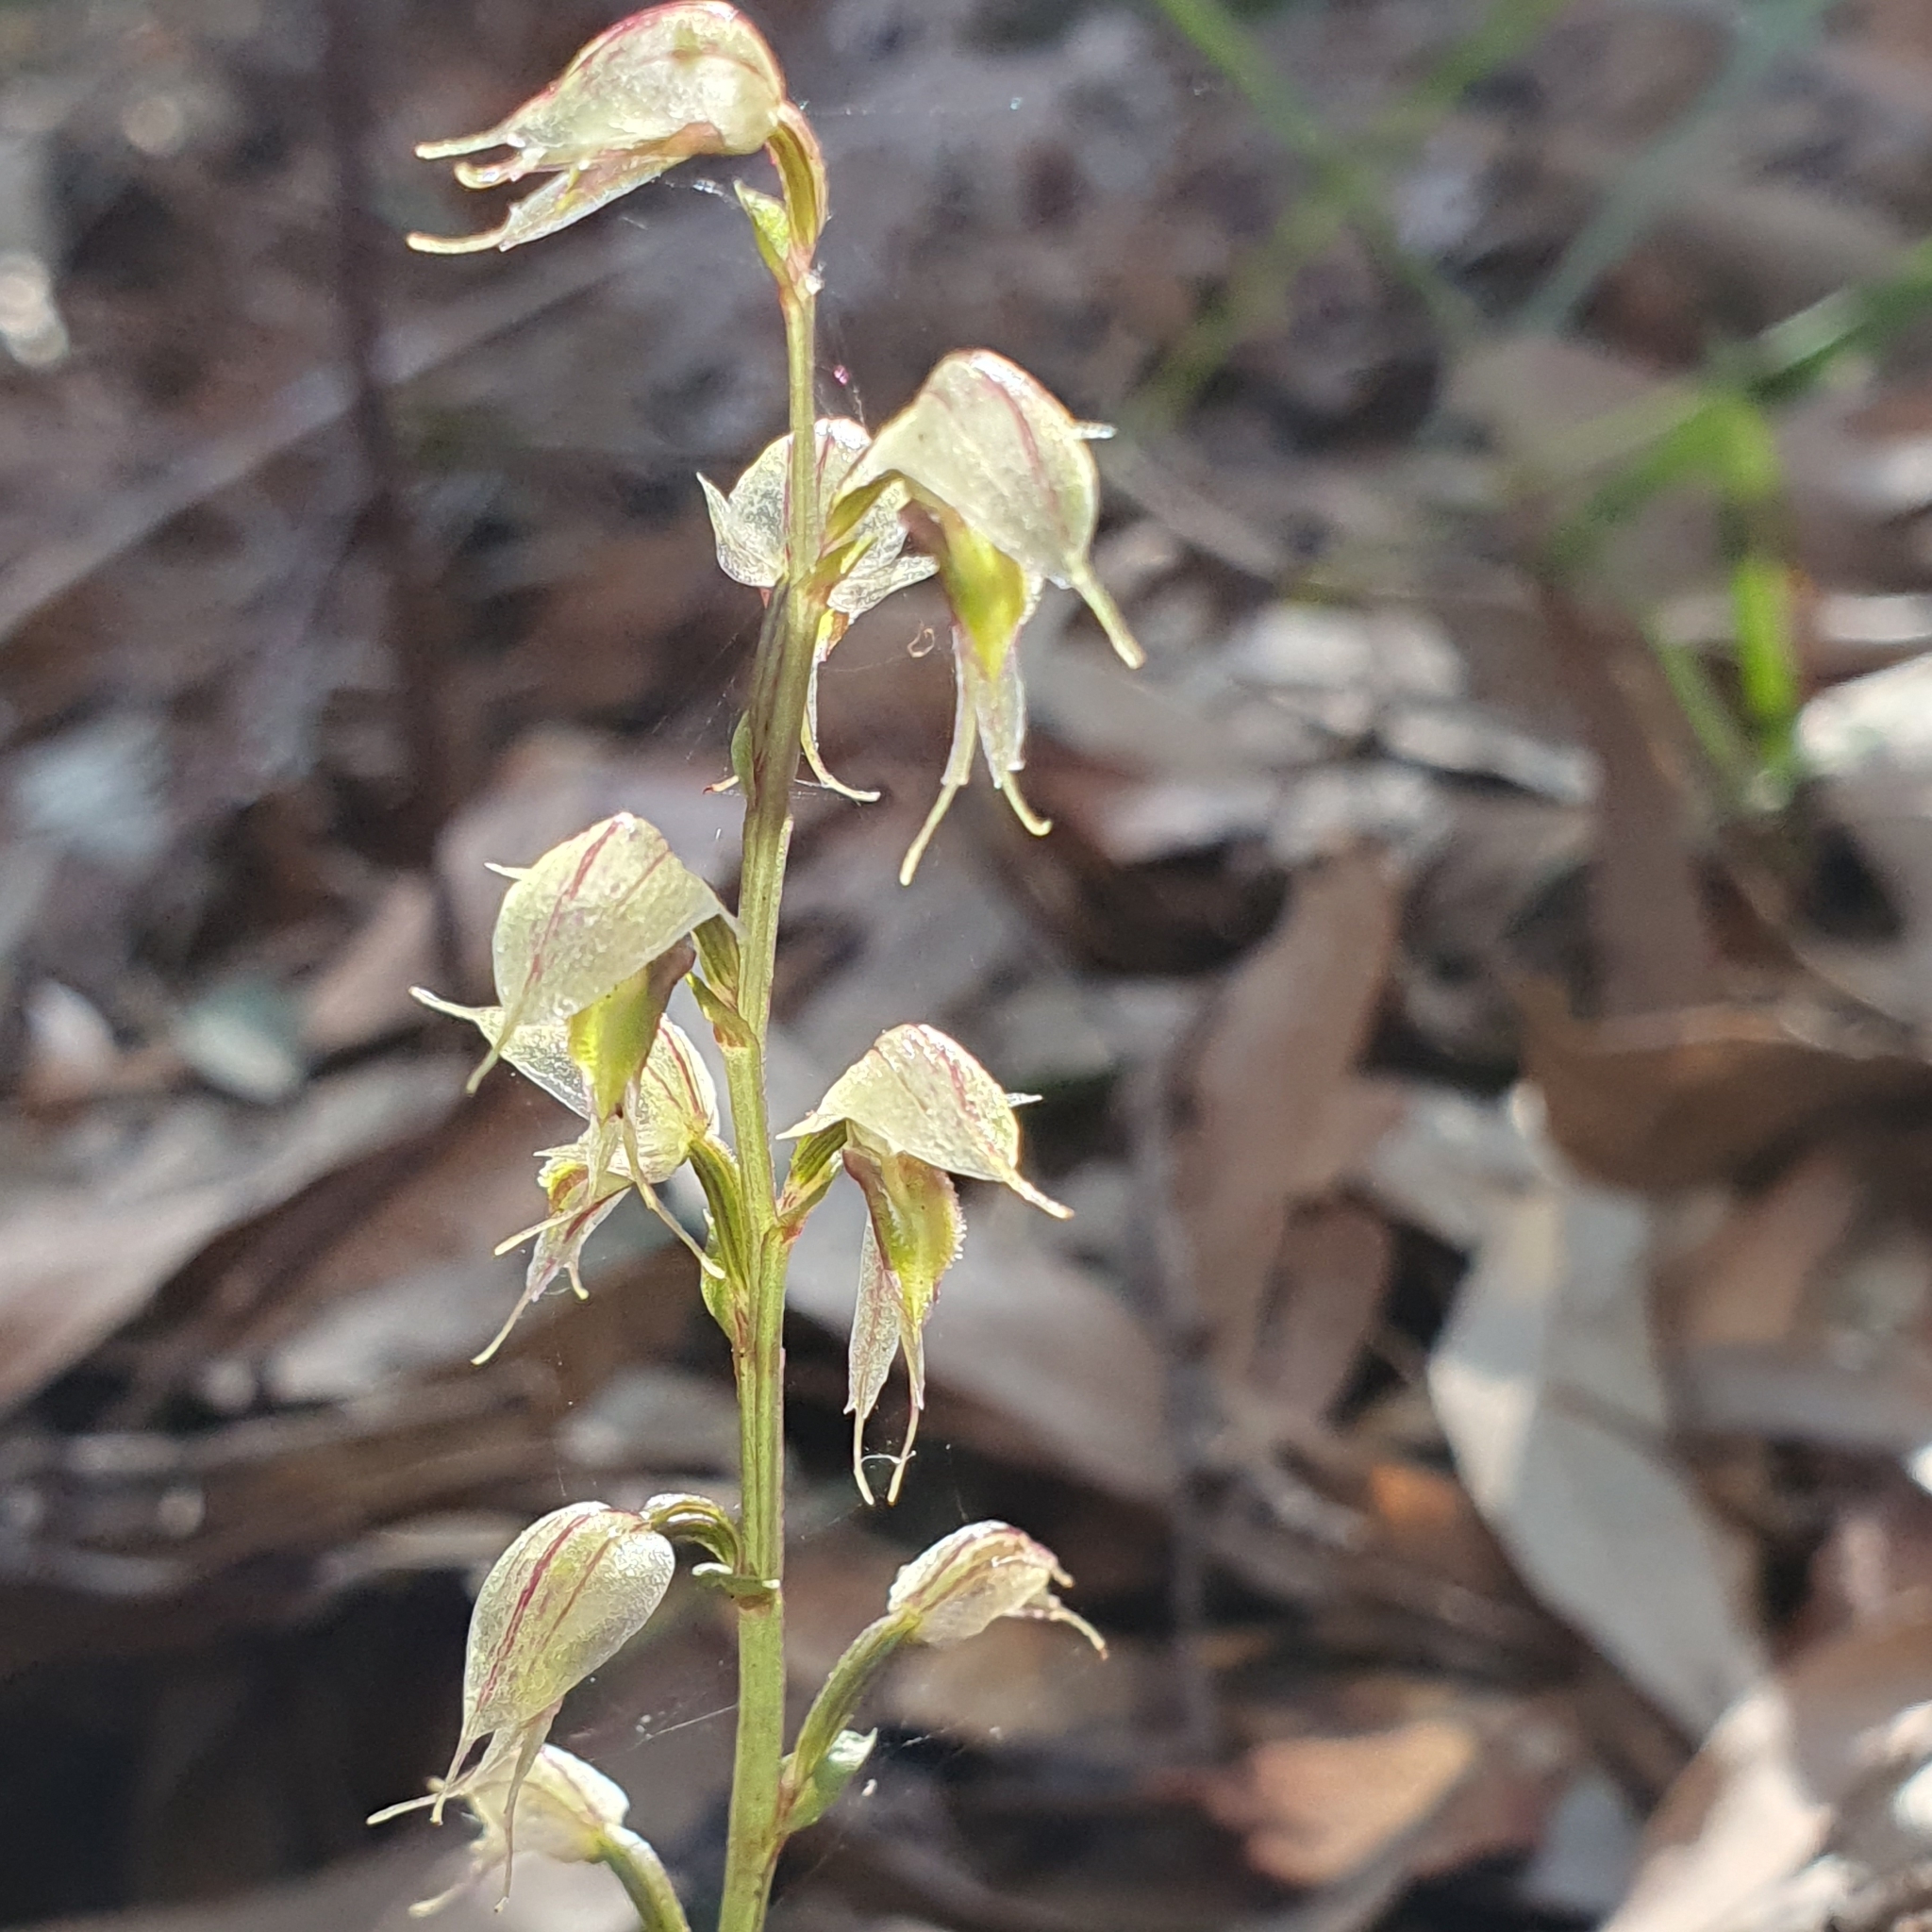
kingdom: Plantae
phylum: Tracheophyta
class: Liliopsida
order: Asparagales
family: Orchidaceae
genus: Acianthus
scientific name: Acianthus fornicatus
